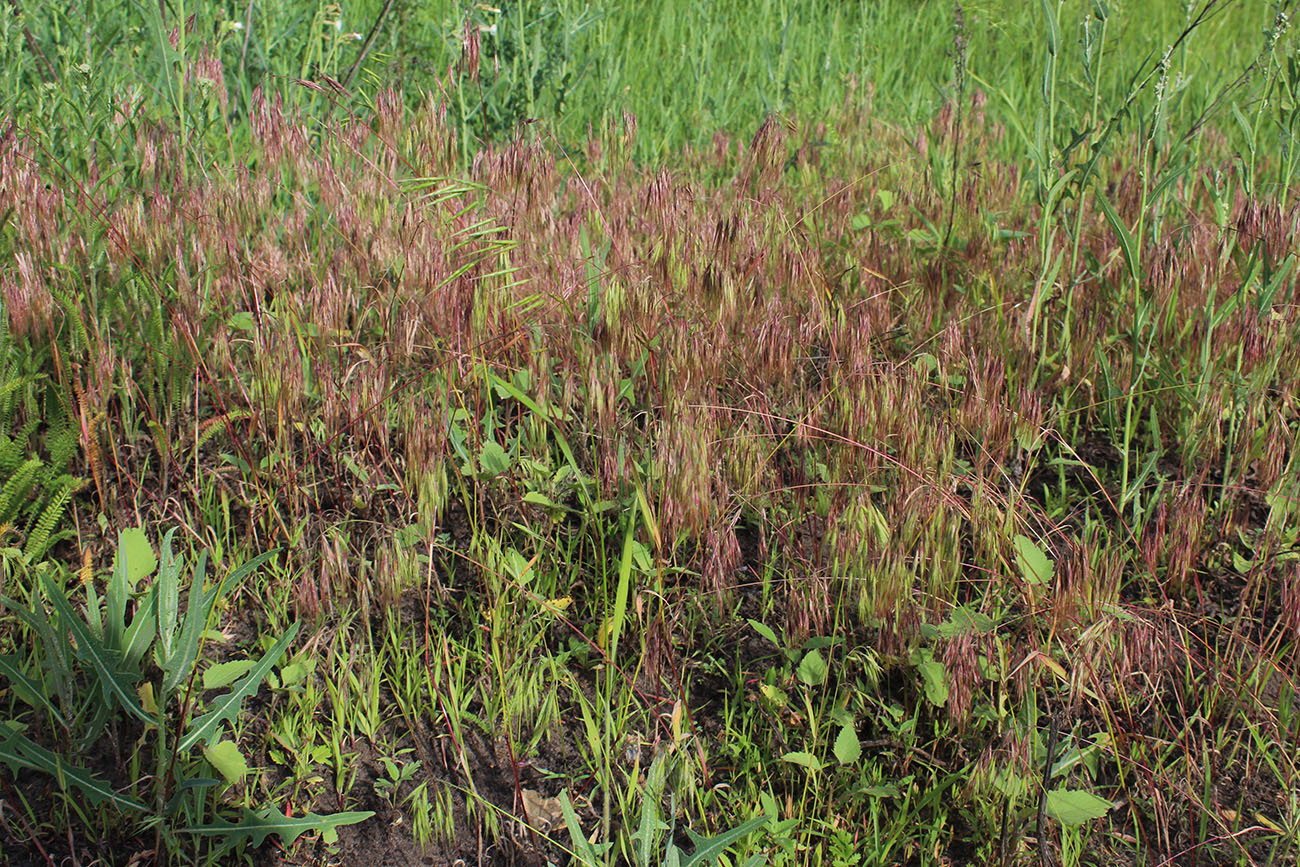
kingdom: Plantae
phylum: Tracheophyta
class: Liliopsida
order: Poales
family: Poaceae
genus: Bromus
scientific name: Bromus tectorum
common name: Cheatgrass
